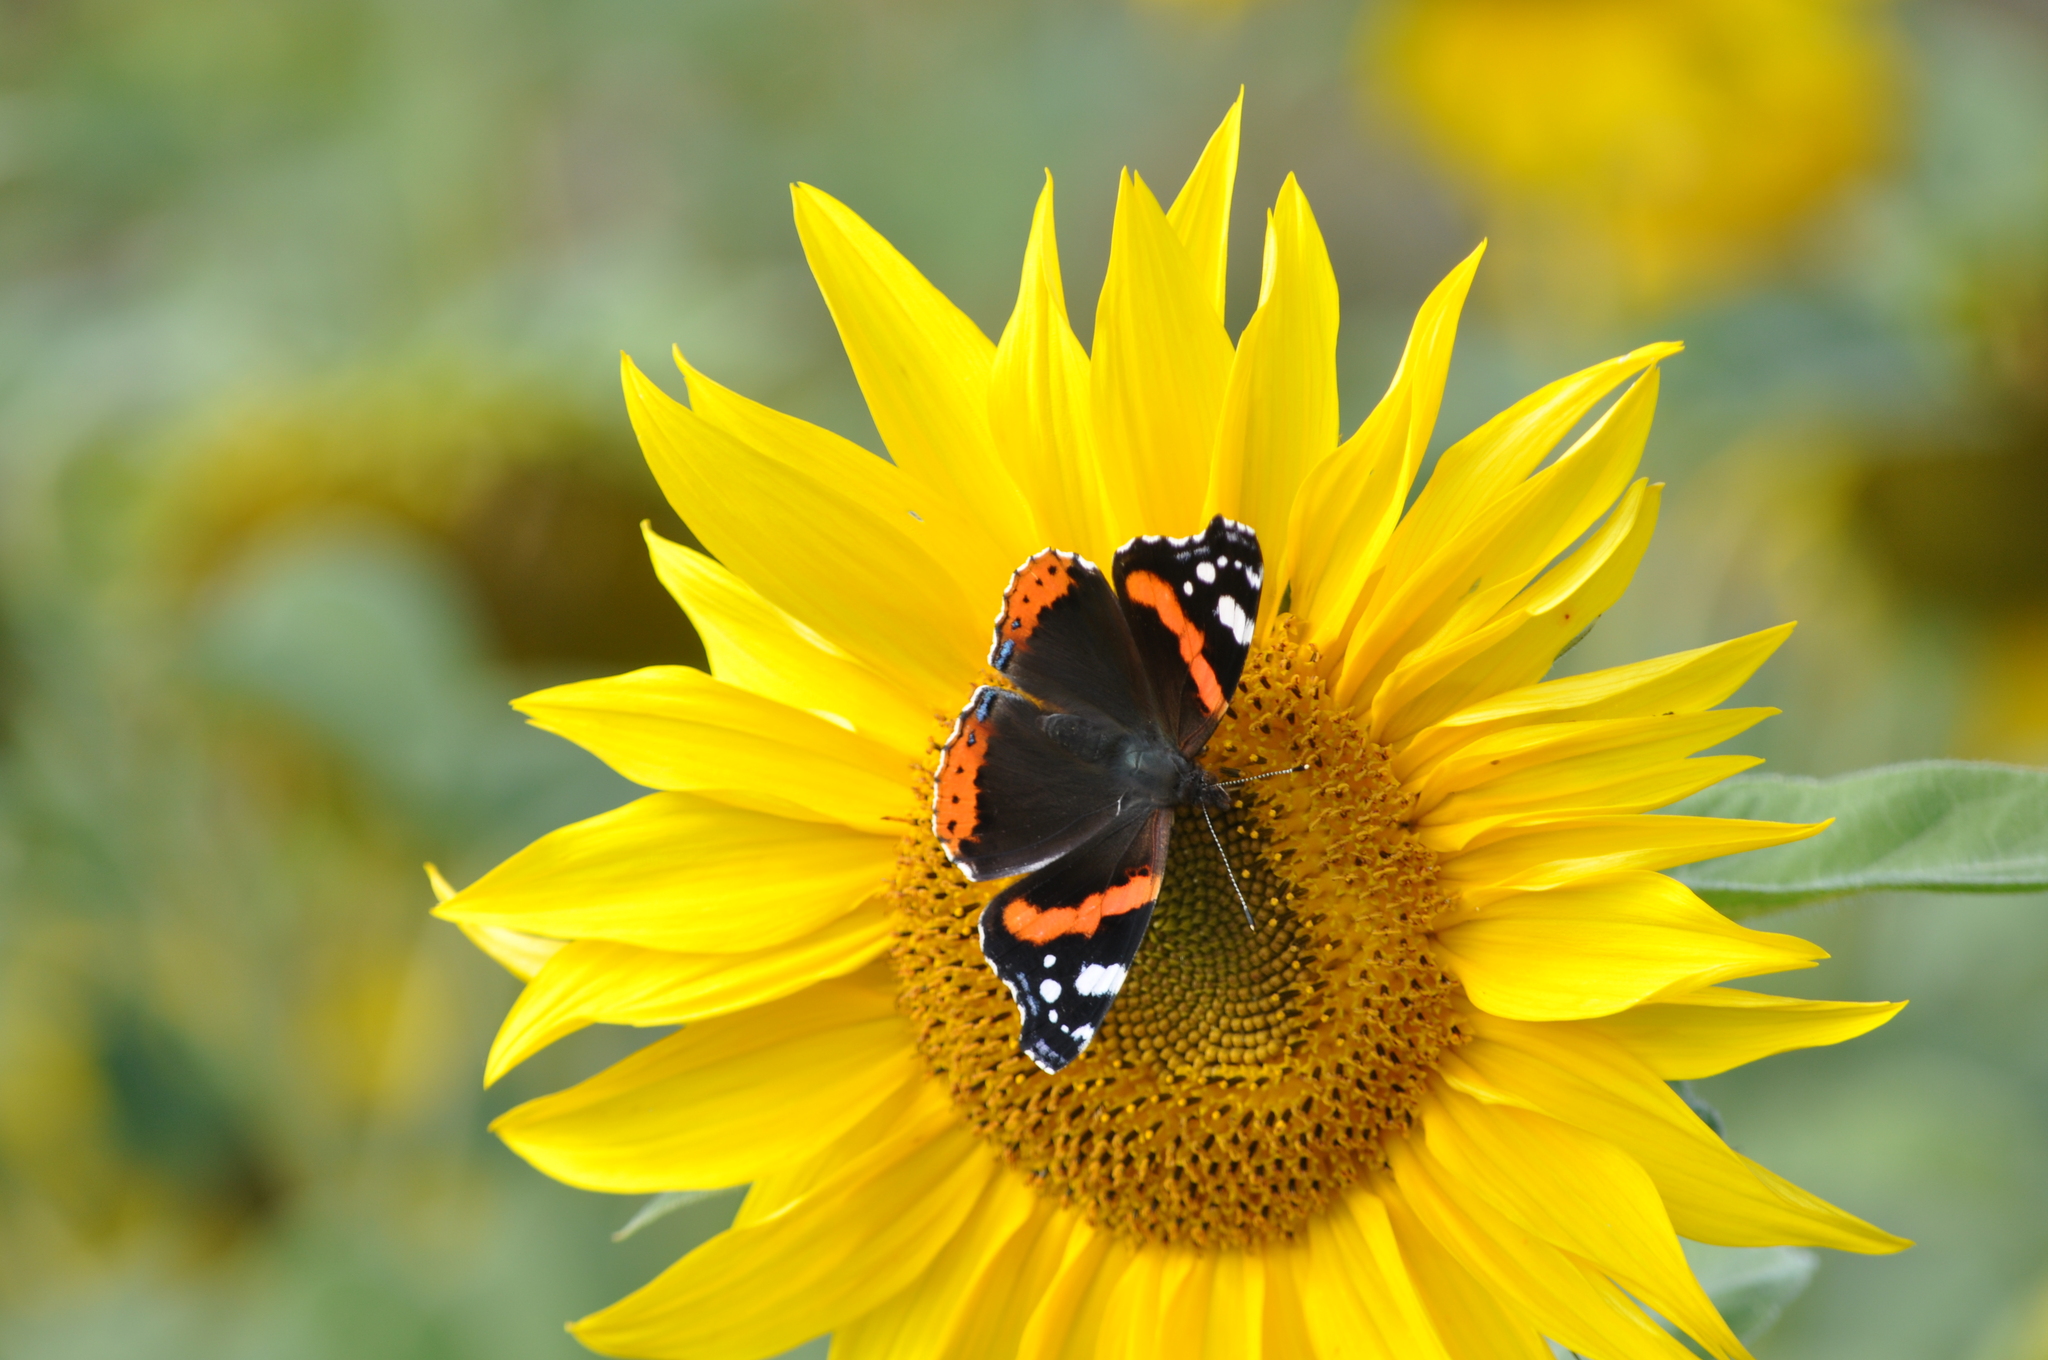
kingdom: Animalia
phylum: Arthropoda
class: Insecta
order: Lepidoptera
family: Nymphalidae
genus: Vanessa
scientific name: Vanessa atalanta
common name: Red admiral
